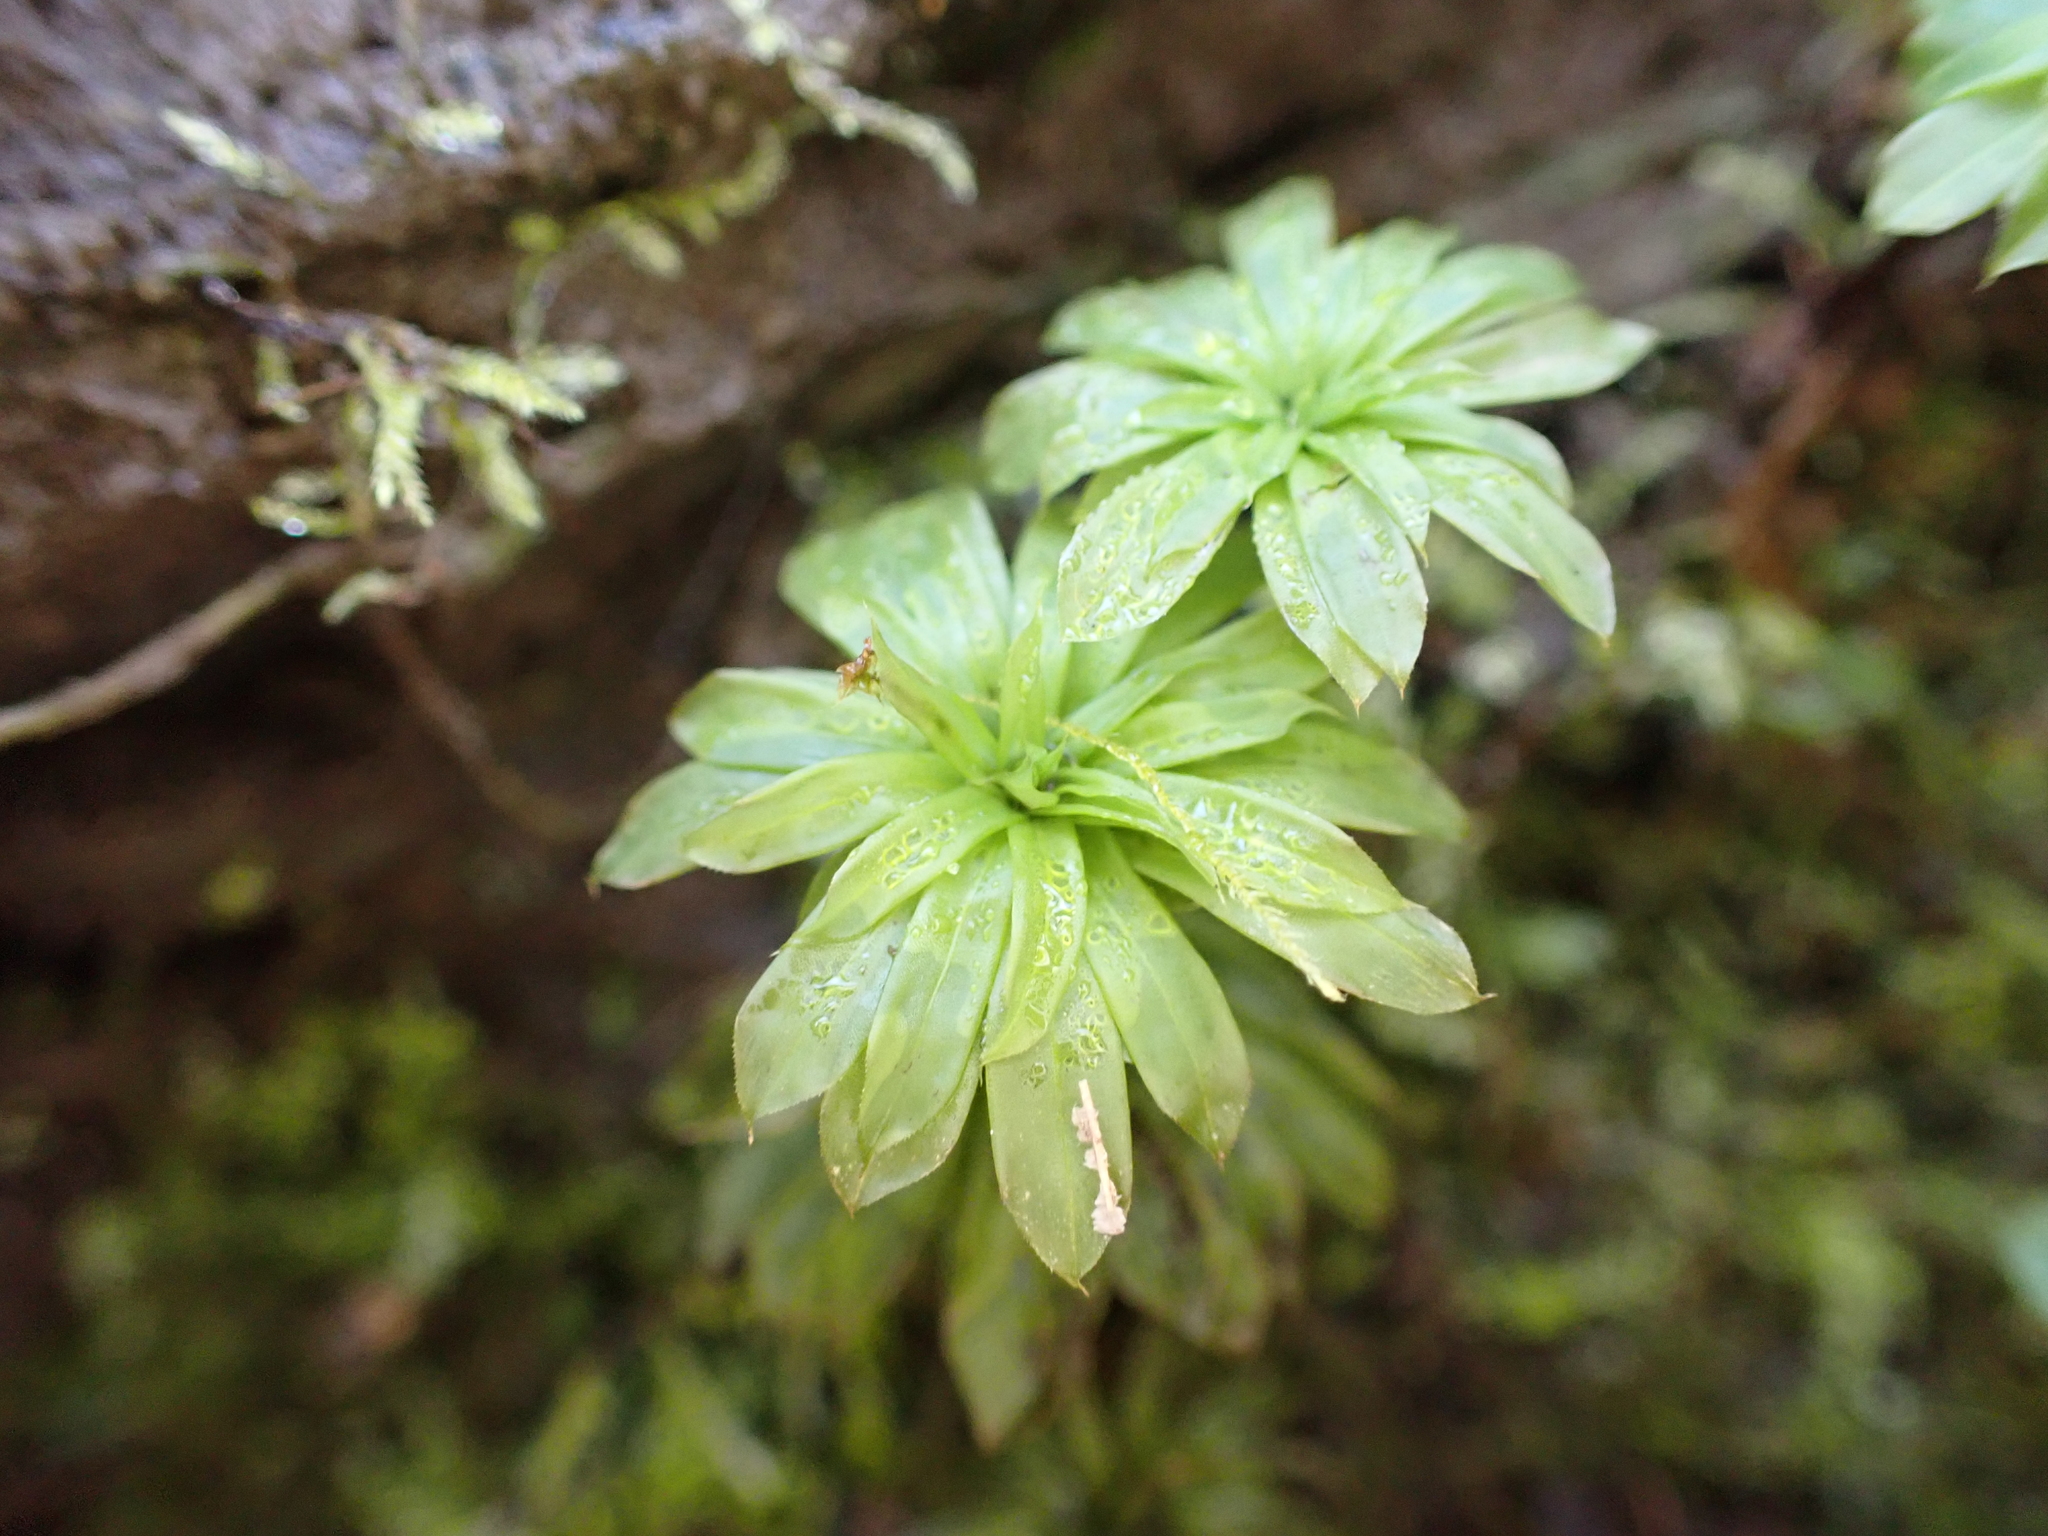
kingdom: Plantae
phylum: Bryophyta
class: Bryopsida
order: Bryales
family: Bryaceae
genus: Rhodobryum
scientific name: Rhodobryum ontariense
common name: Ontario rhodobryum moss
